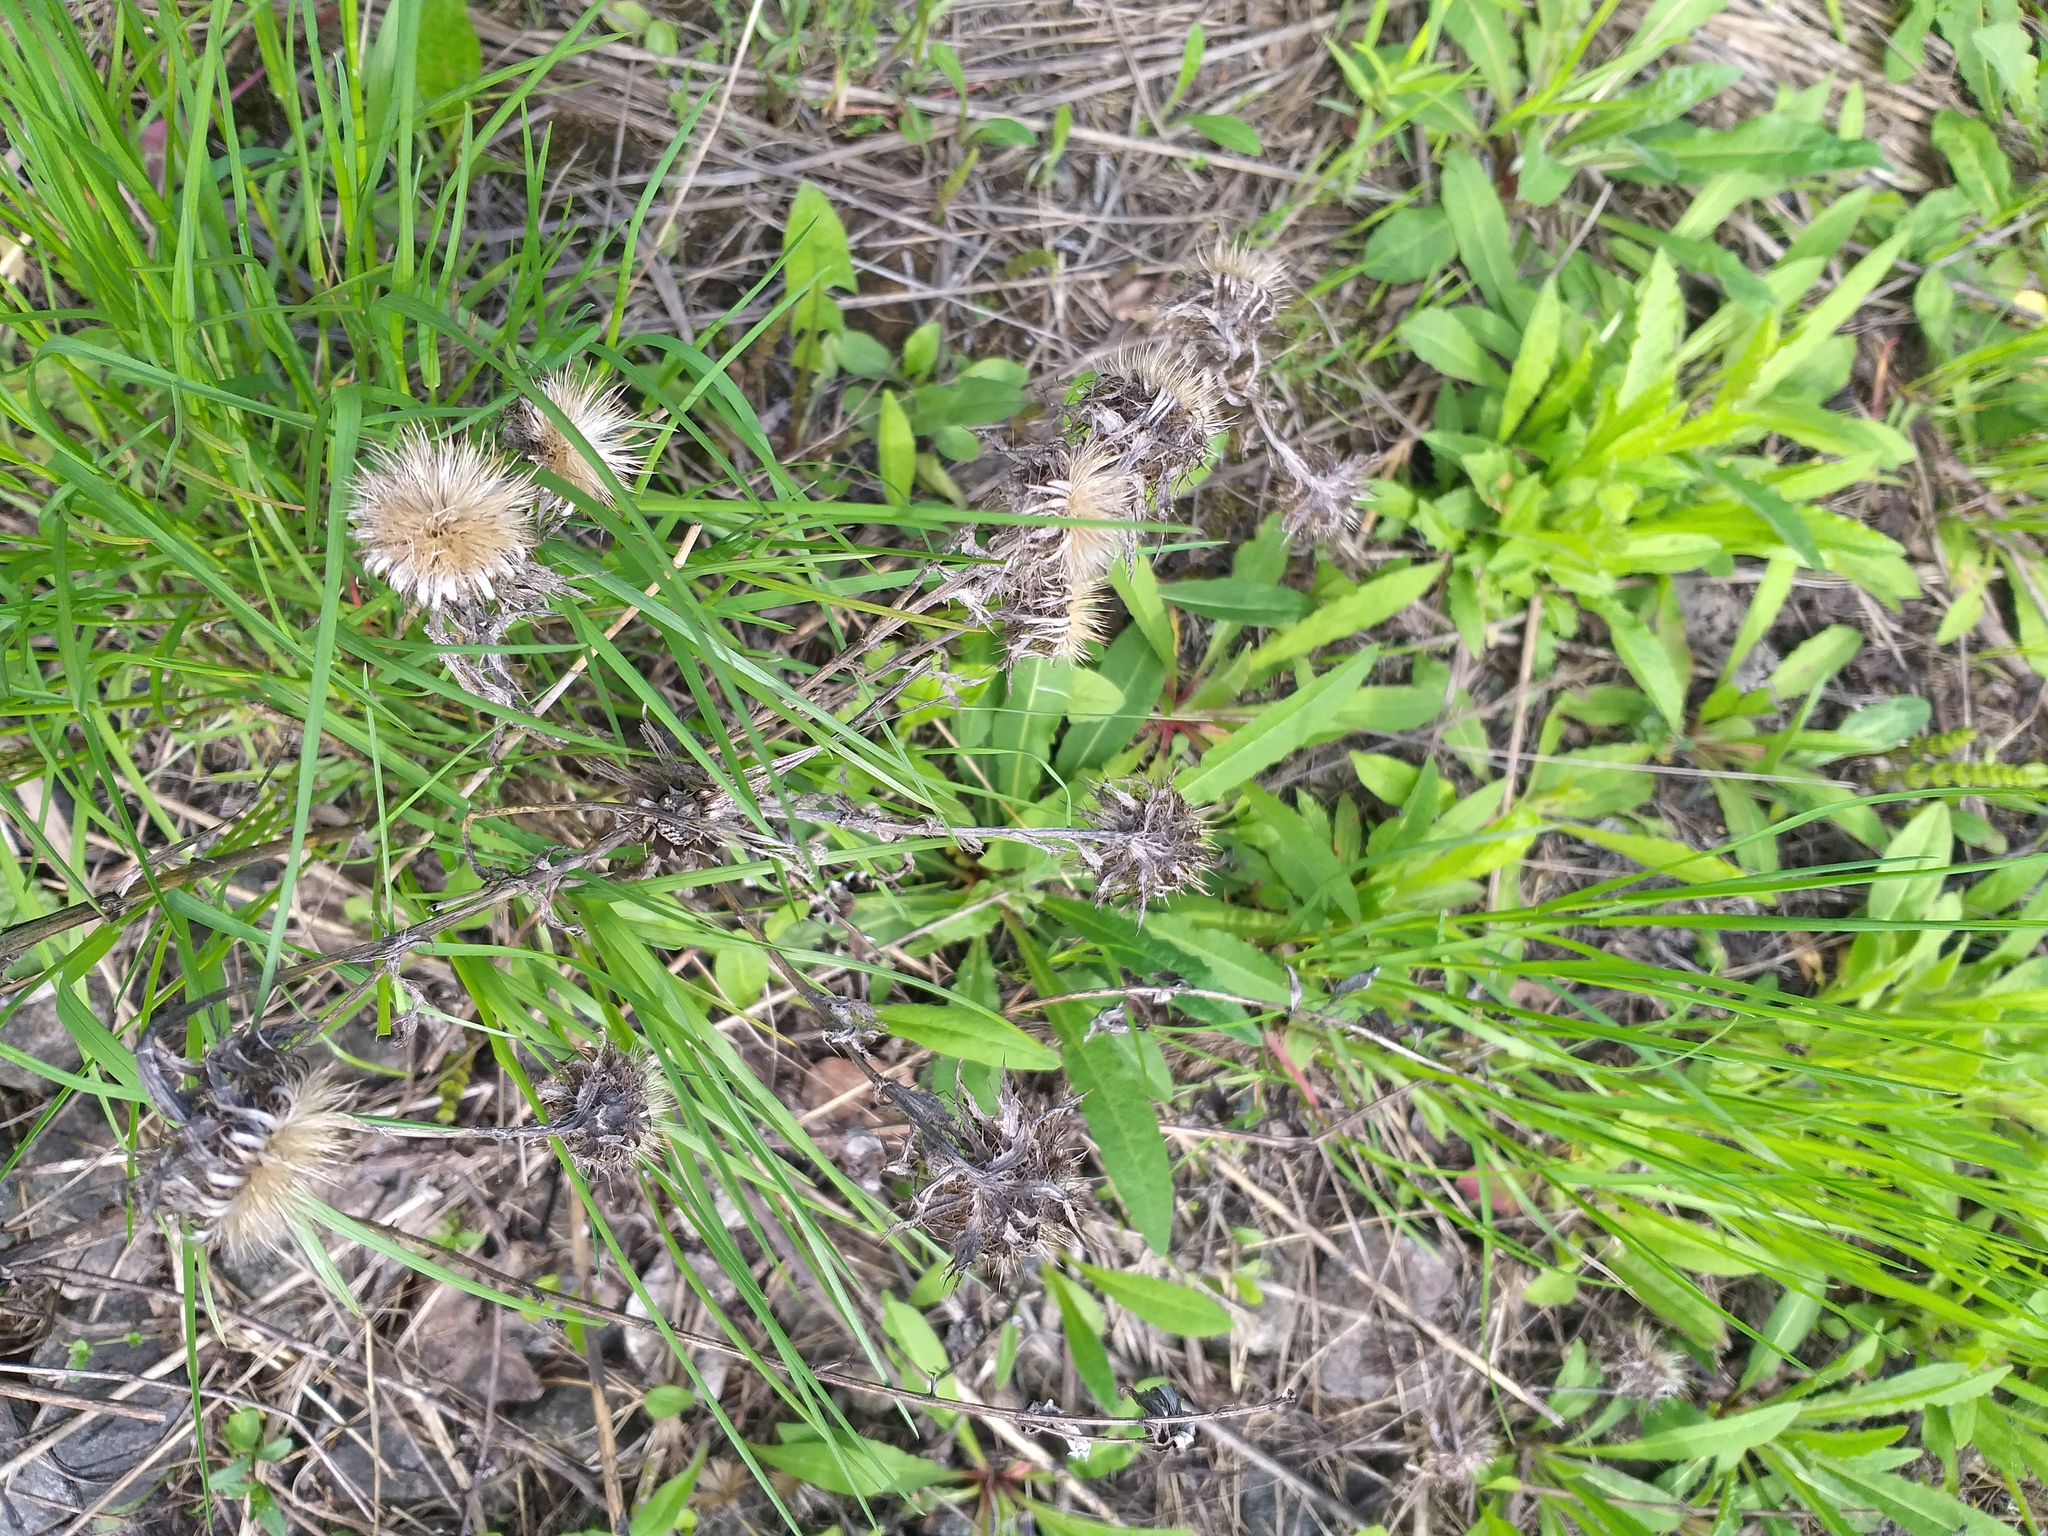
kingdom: Plantae
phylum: Tracheophyta
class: Magnoliopsida
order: Asterales
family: Asteraceae
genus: Carlina
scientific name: Carlina biebersteinii
